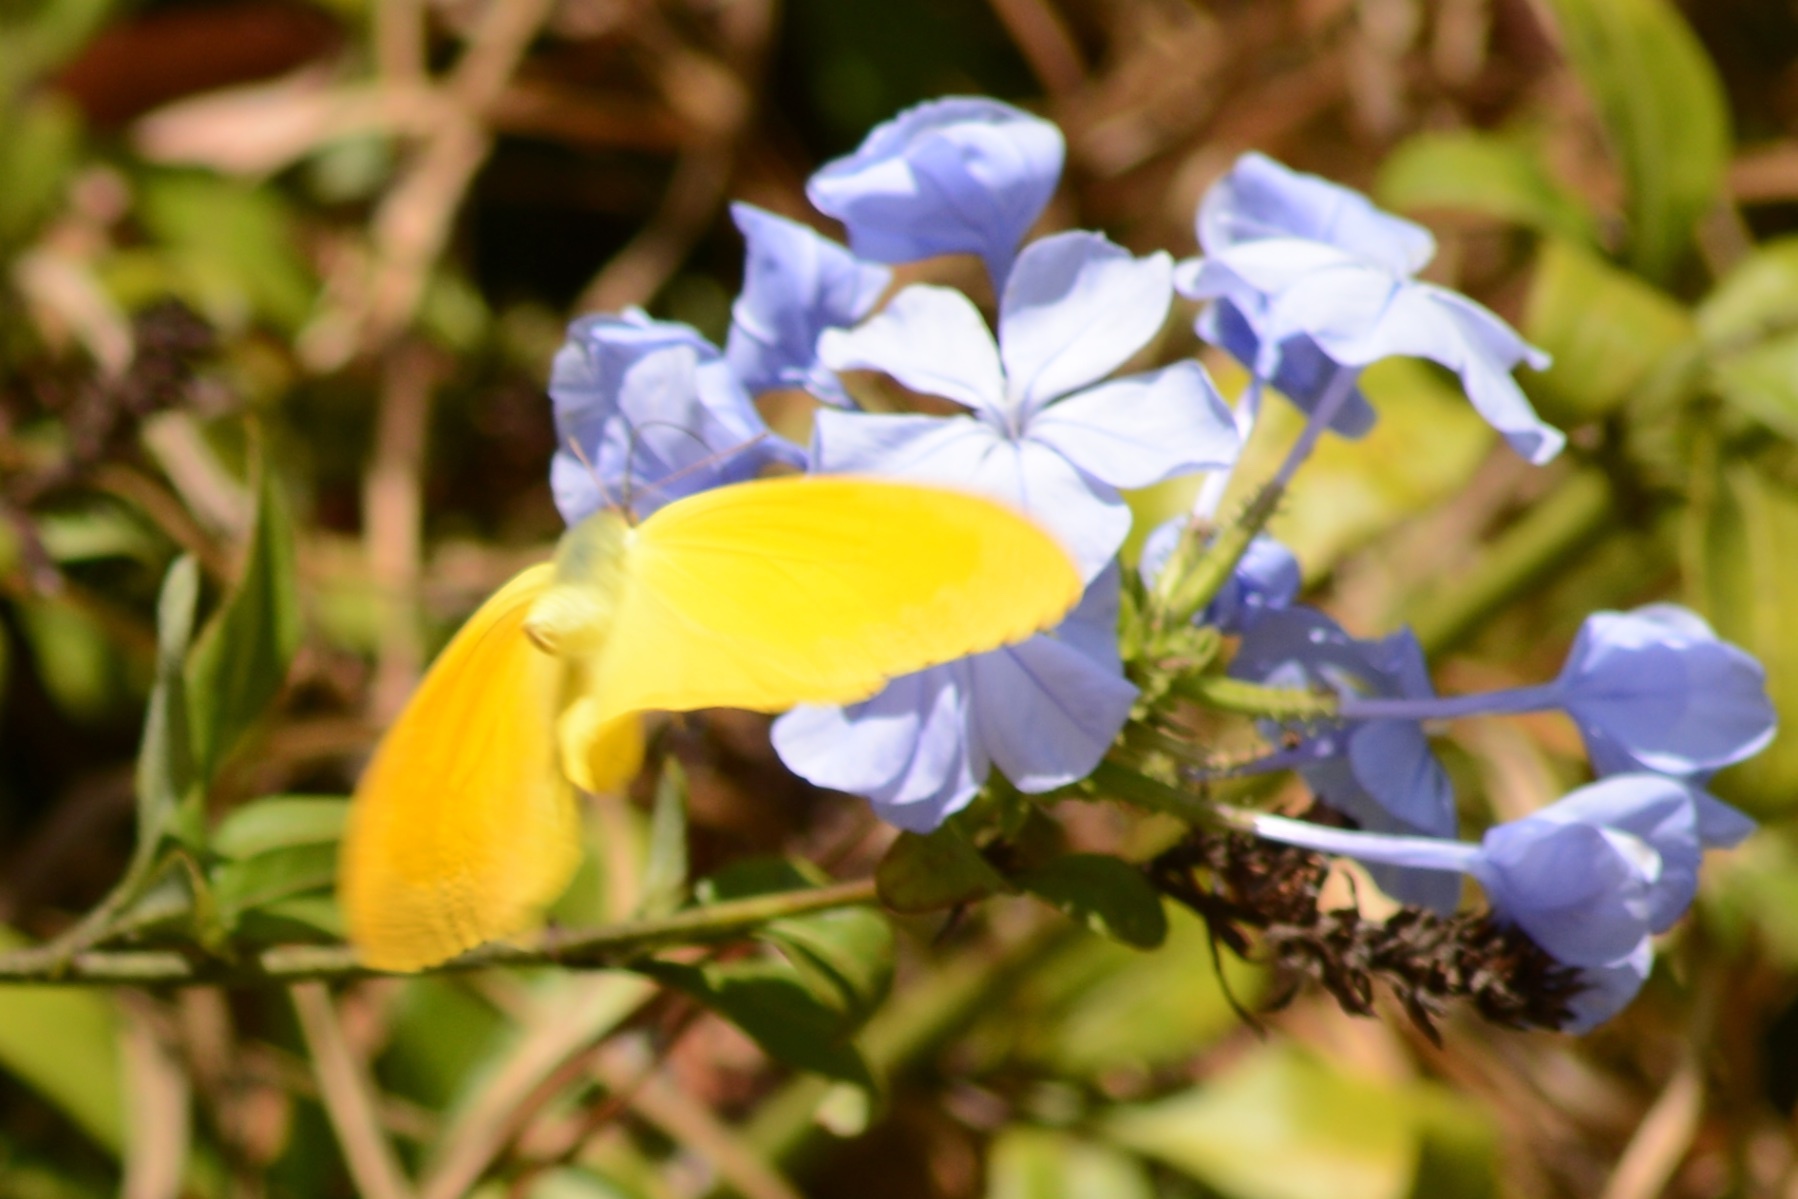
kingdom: Animalia
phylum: Arthropoda
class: Insecta
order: Lepidoptera
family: Pieridae
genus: Phoebis
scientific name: Phoebis agarithe
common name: Large orange sulphur
